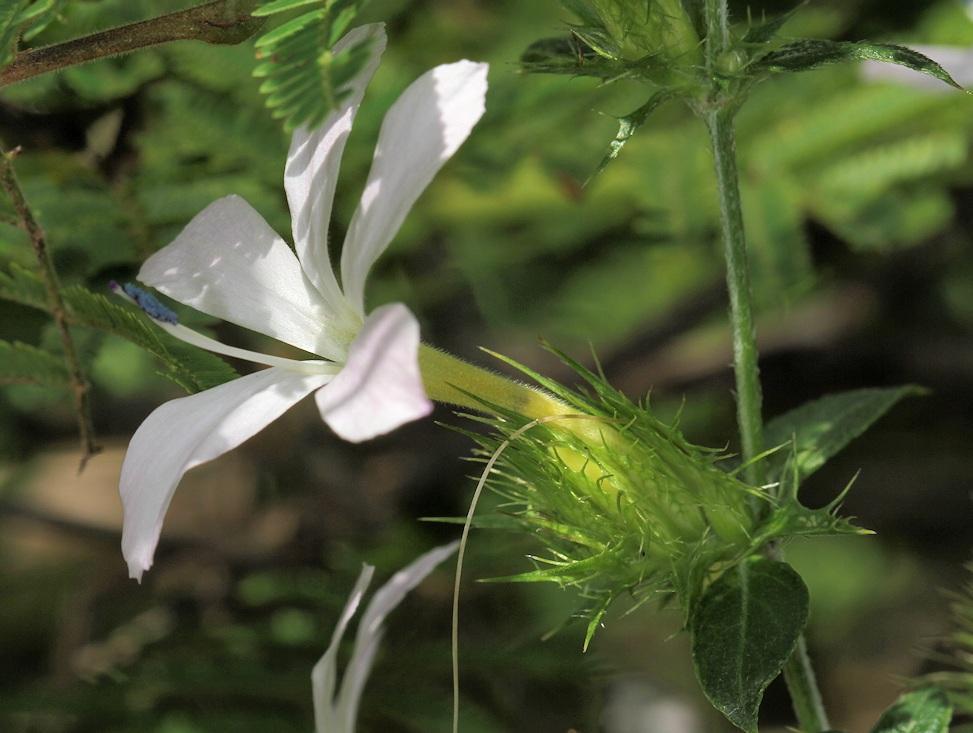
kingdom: Plantae
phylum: Tracheophyta
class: Magnoliopsida
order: Lamiales
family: Acanthaceae
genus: Barleria
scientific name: Barleria saxatilis
